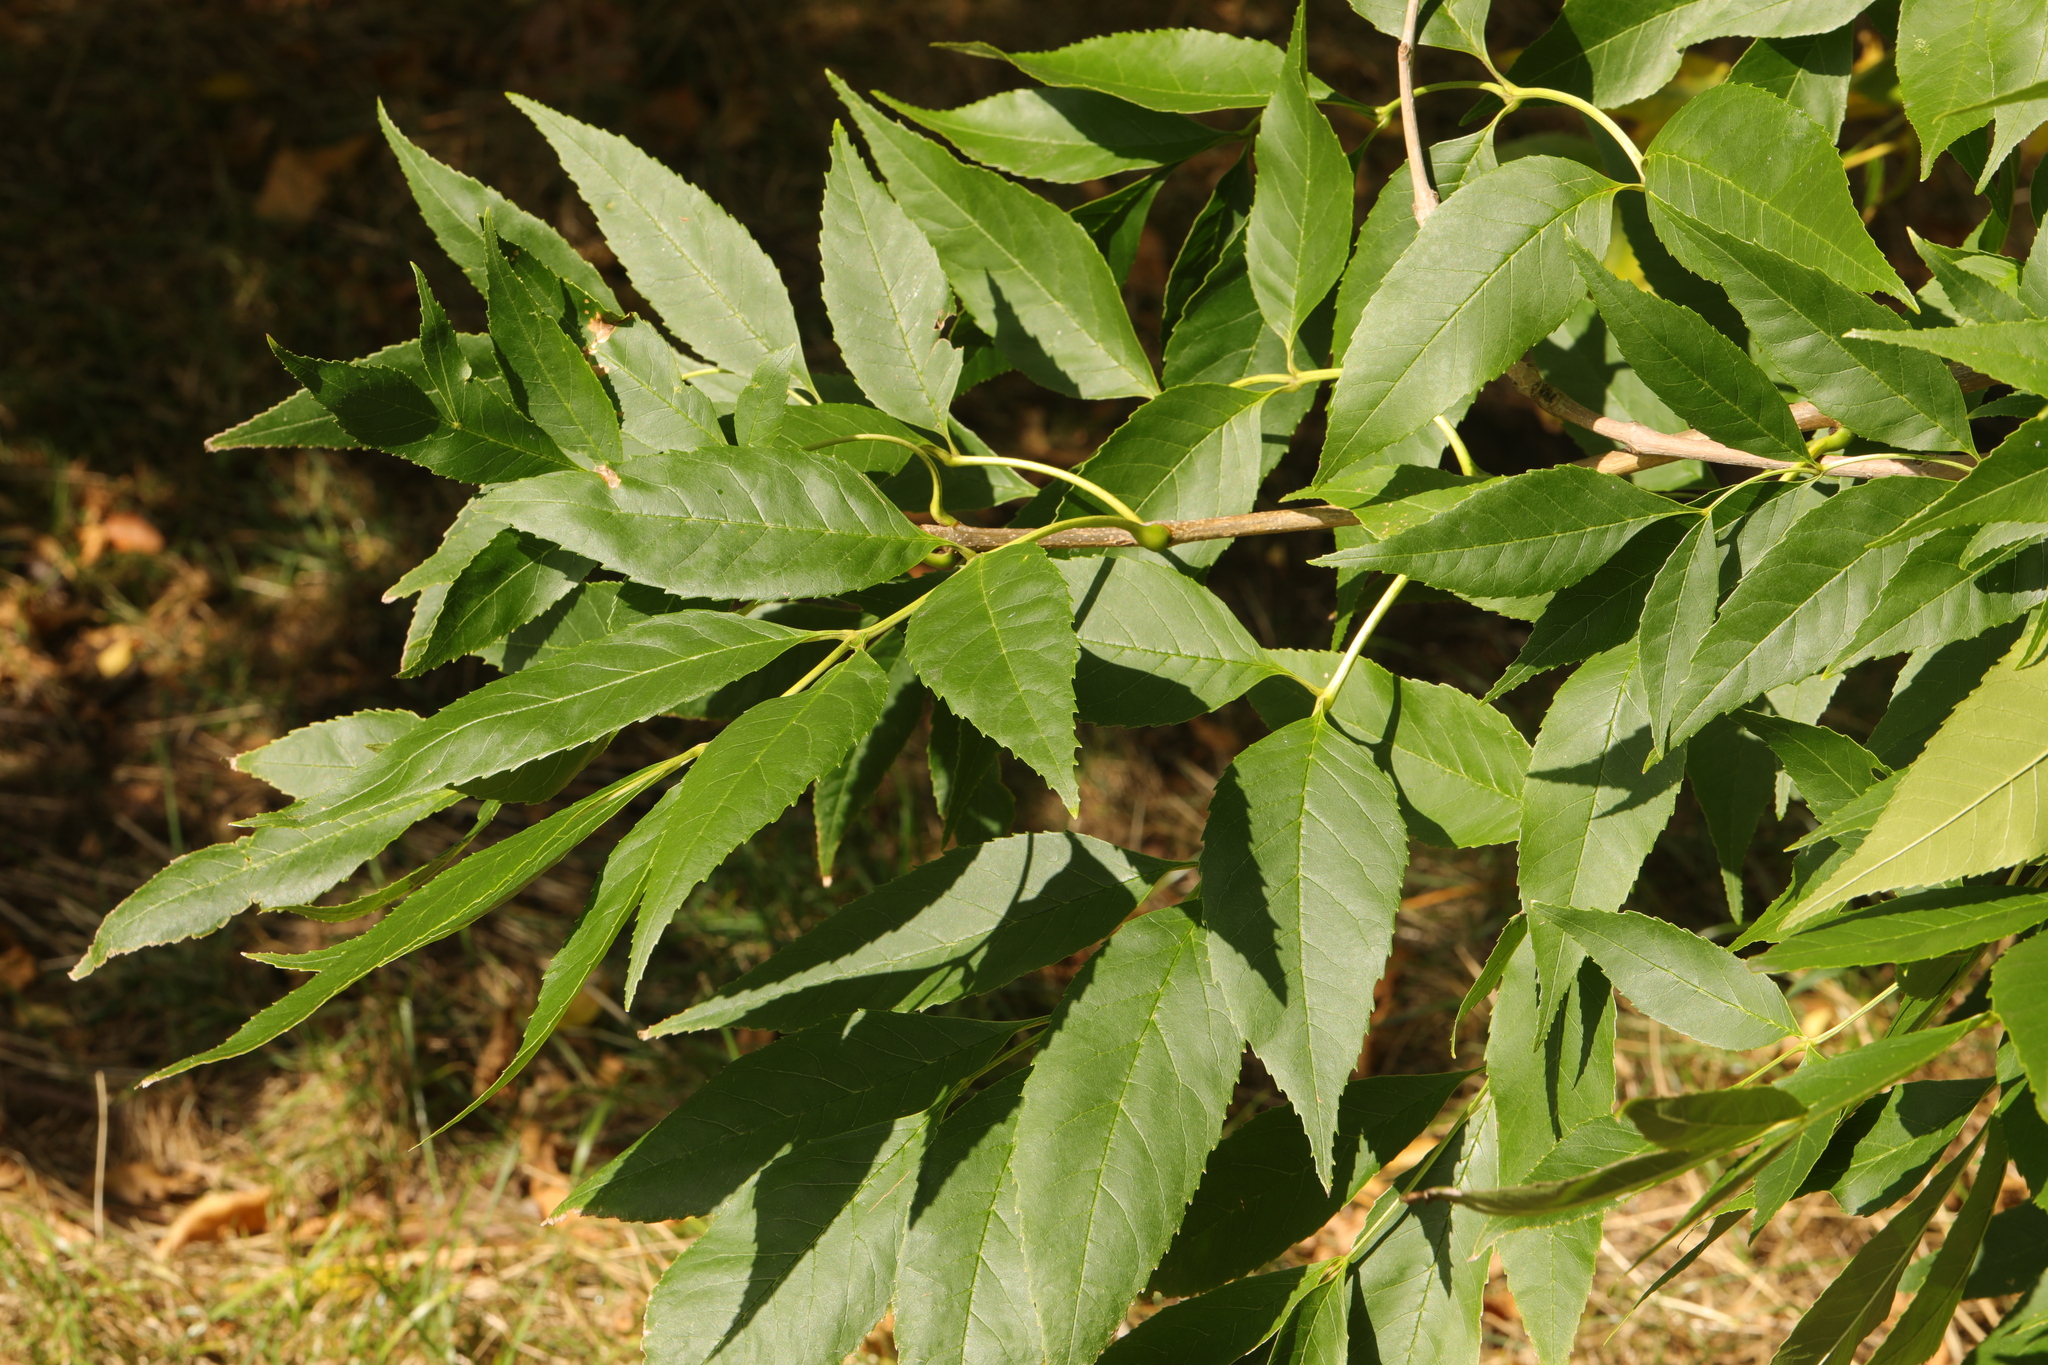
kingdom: Plantae
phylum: Tracheophyta
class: Magnoliopsida
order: Lamiales
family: Oleaceae
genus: Fraxinus
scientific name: Fraxinus excelsior
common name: European ash
